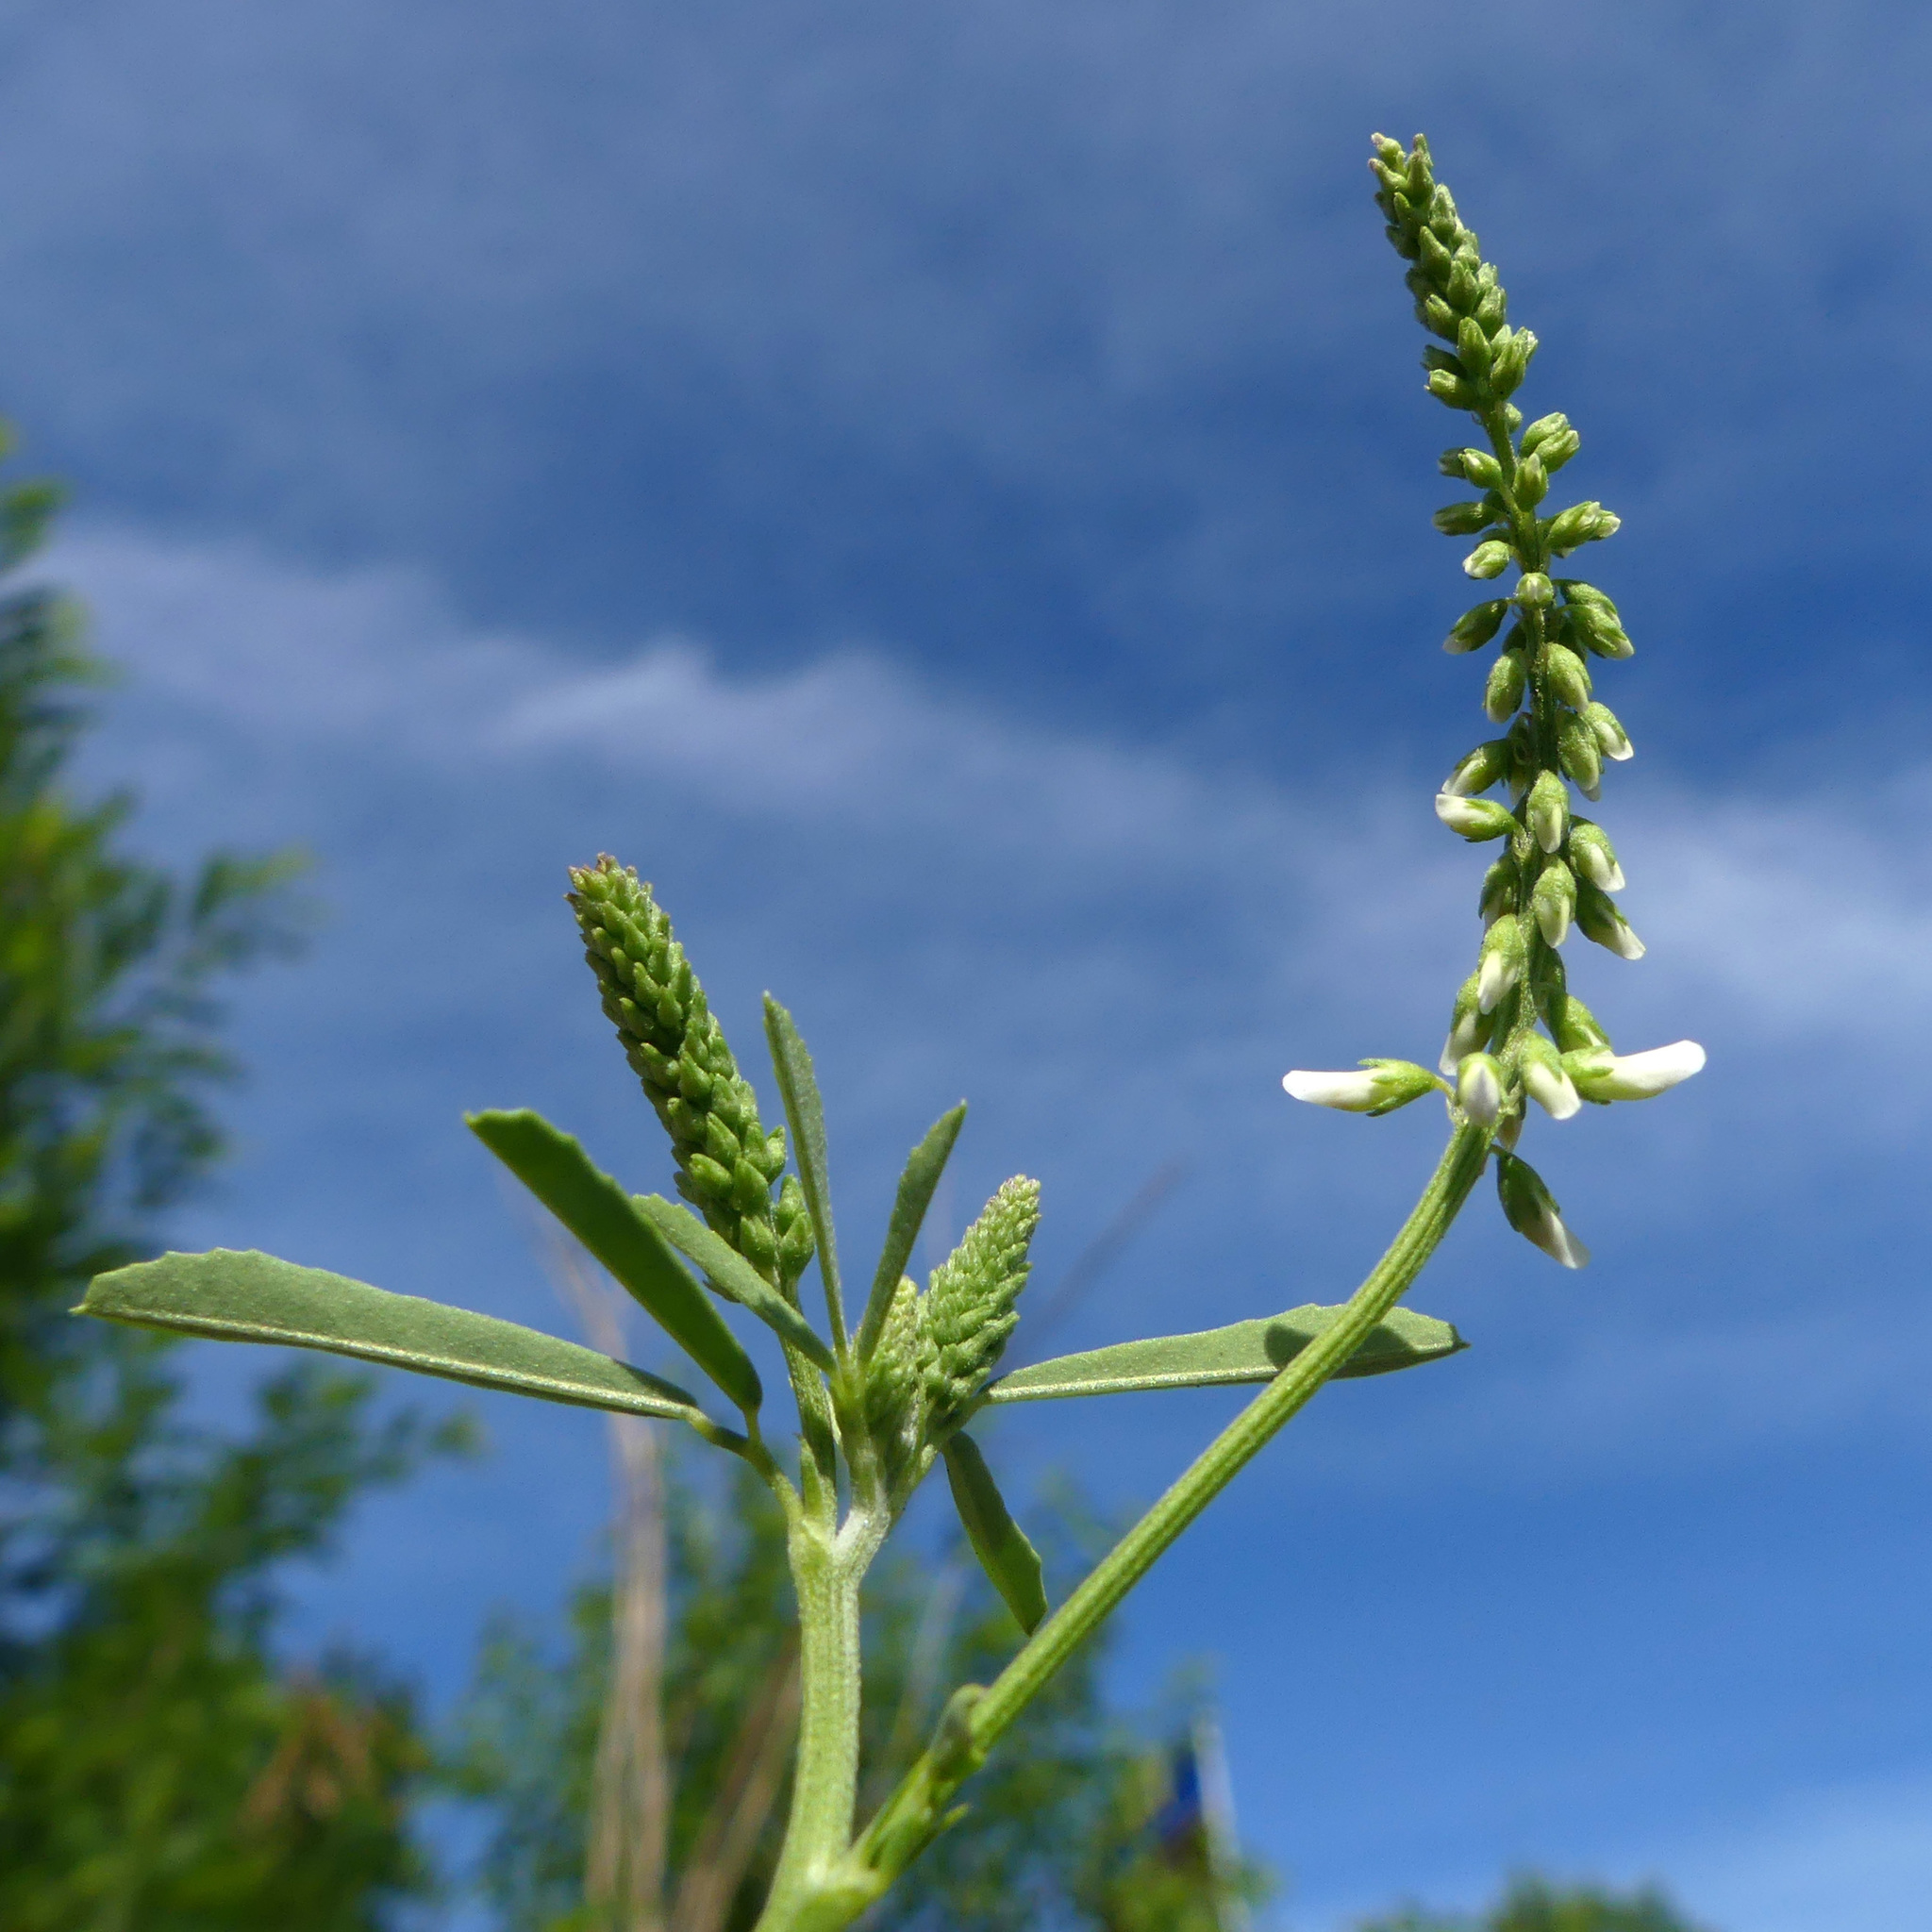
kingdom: Plantae
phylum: Tracheophyta
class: Magnoliopsida
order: Fabales
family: Fabaceae
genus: Melilotus
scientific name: Melilotus albus
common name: White melilot
